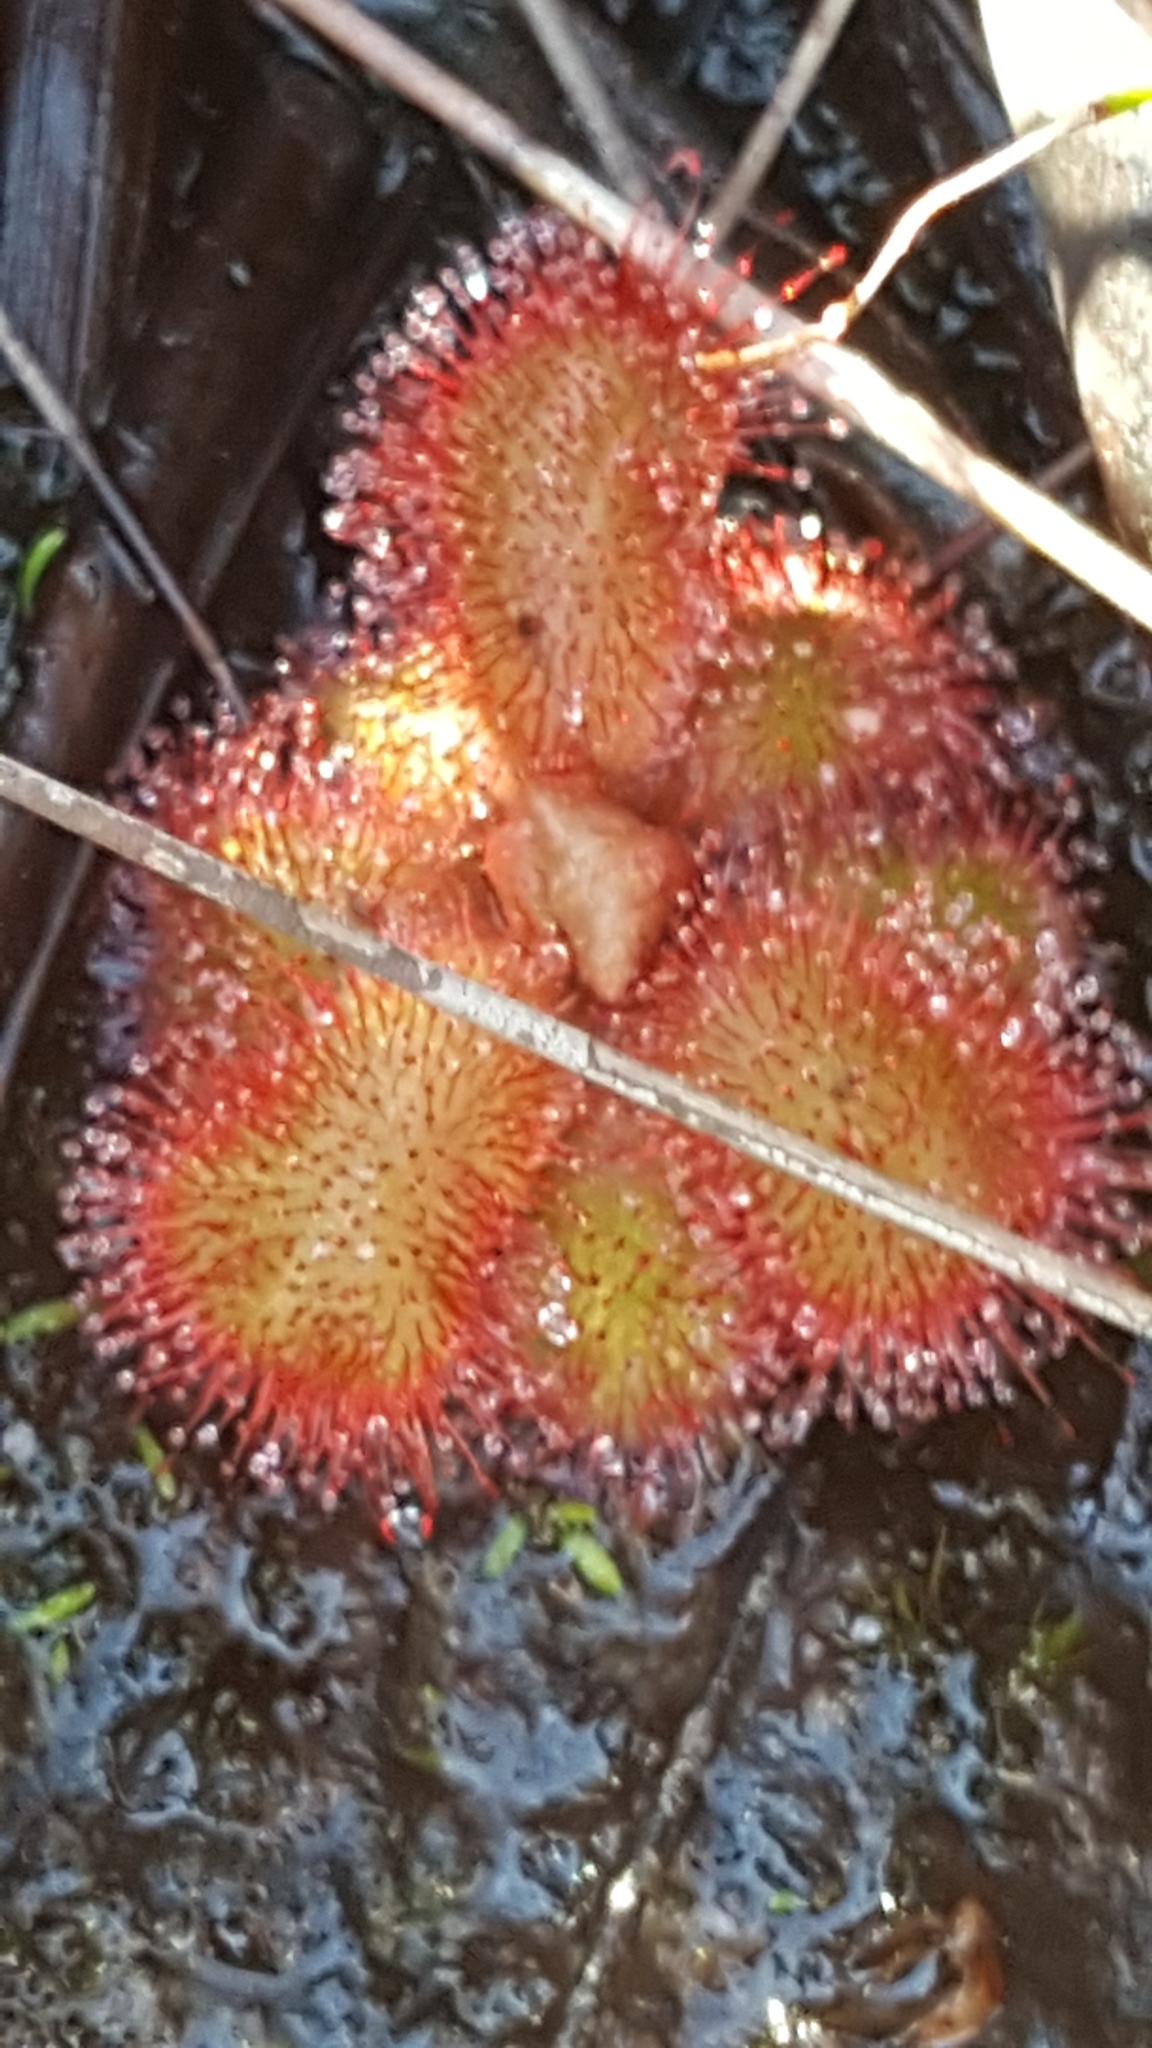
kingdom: Plantae
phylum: Tracheophyta
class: Magnoliopsida
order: Caryophyllales
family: Droseraceae
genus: Drosera
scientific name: Drosera cuneifolia
